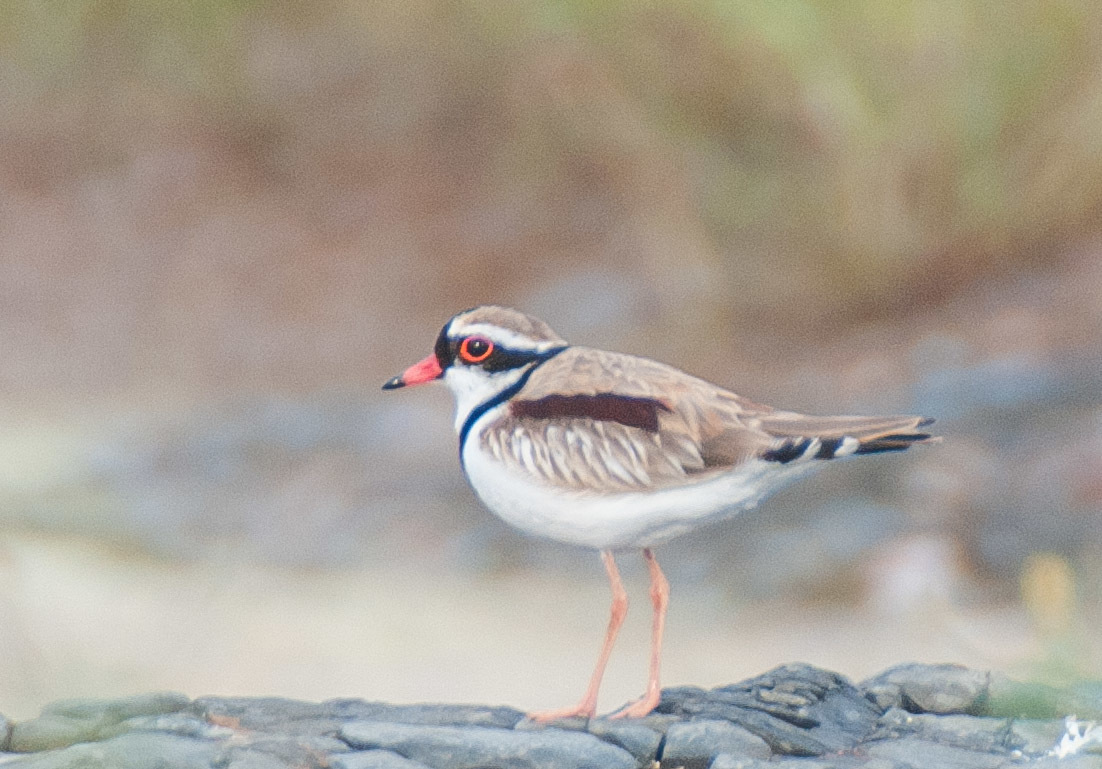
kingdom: Animalia
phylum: Chordata
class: Aves
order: Charadriiformes
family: Charadriidae
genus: Elseyornis
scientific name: Elseyornis melanops
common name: Black-fronted dotterel
